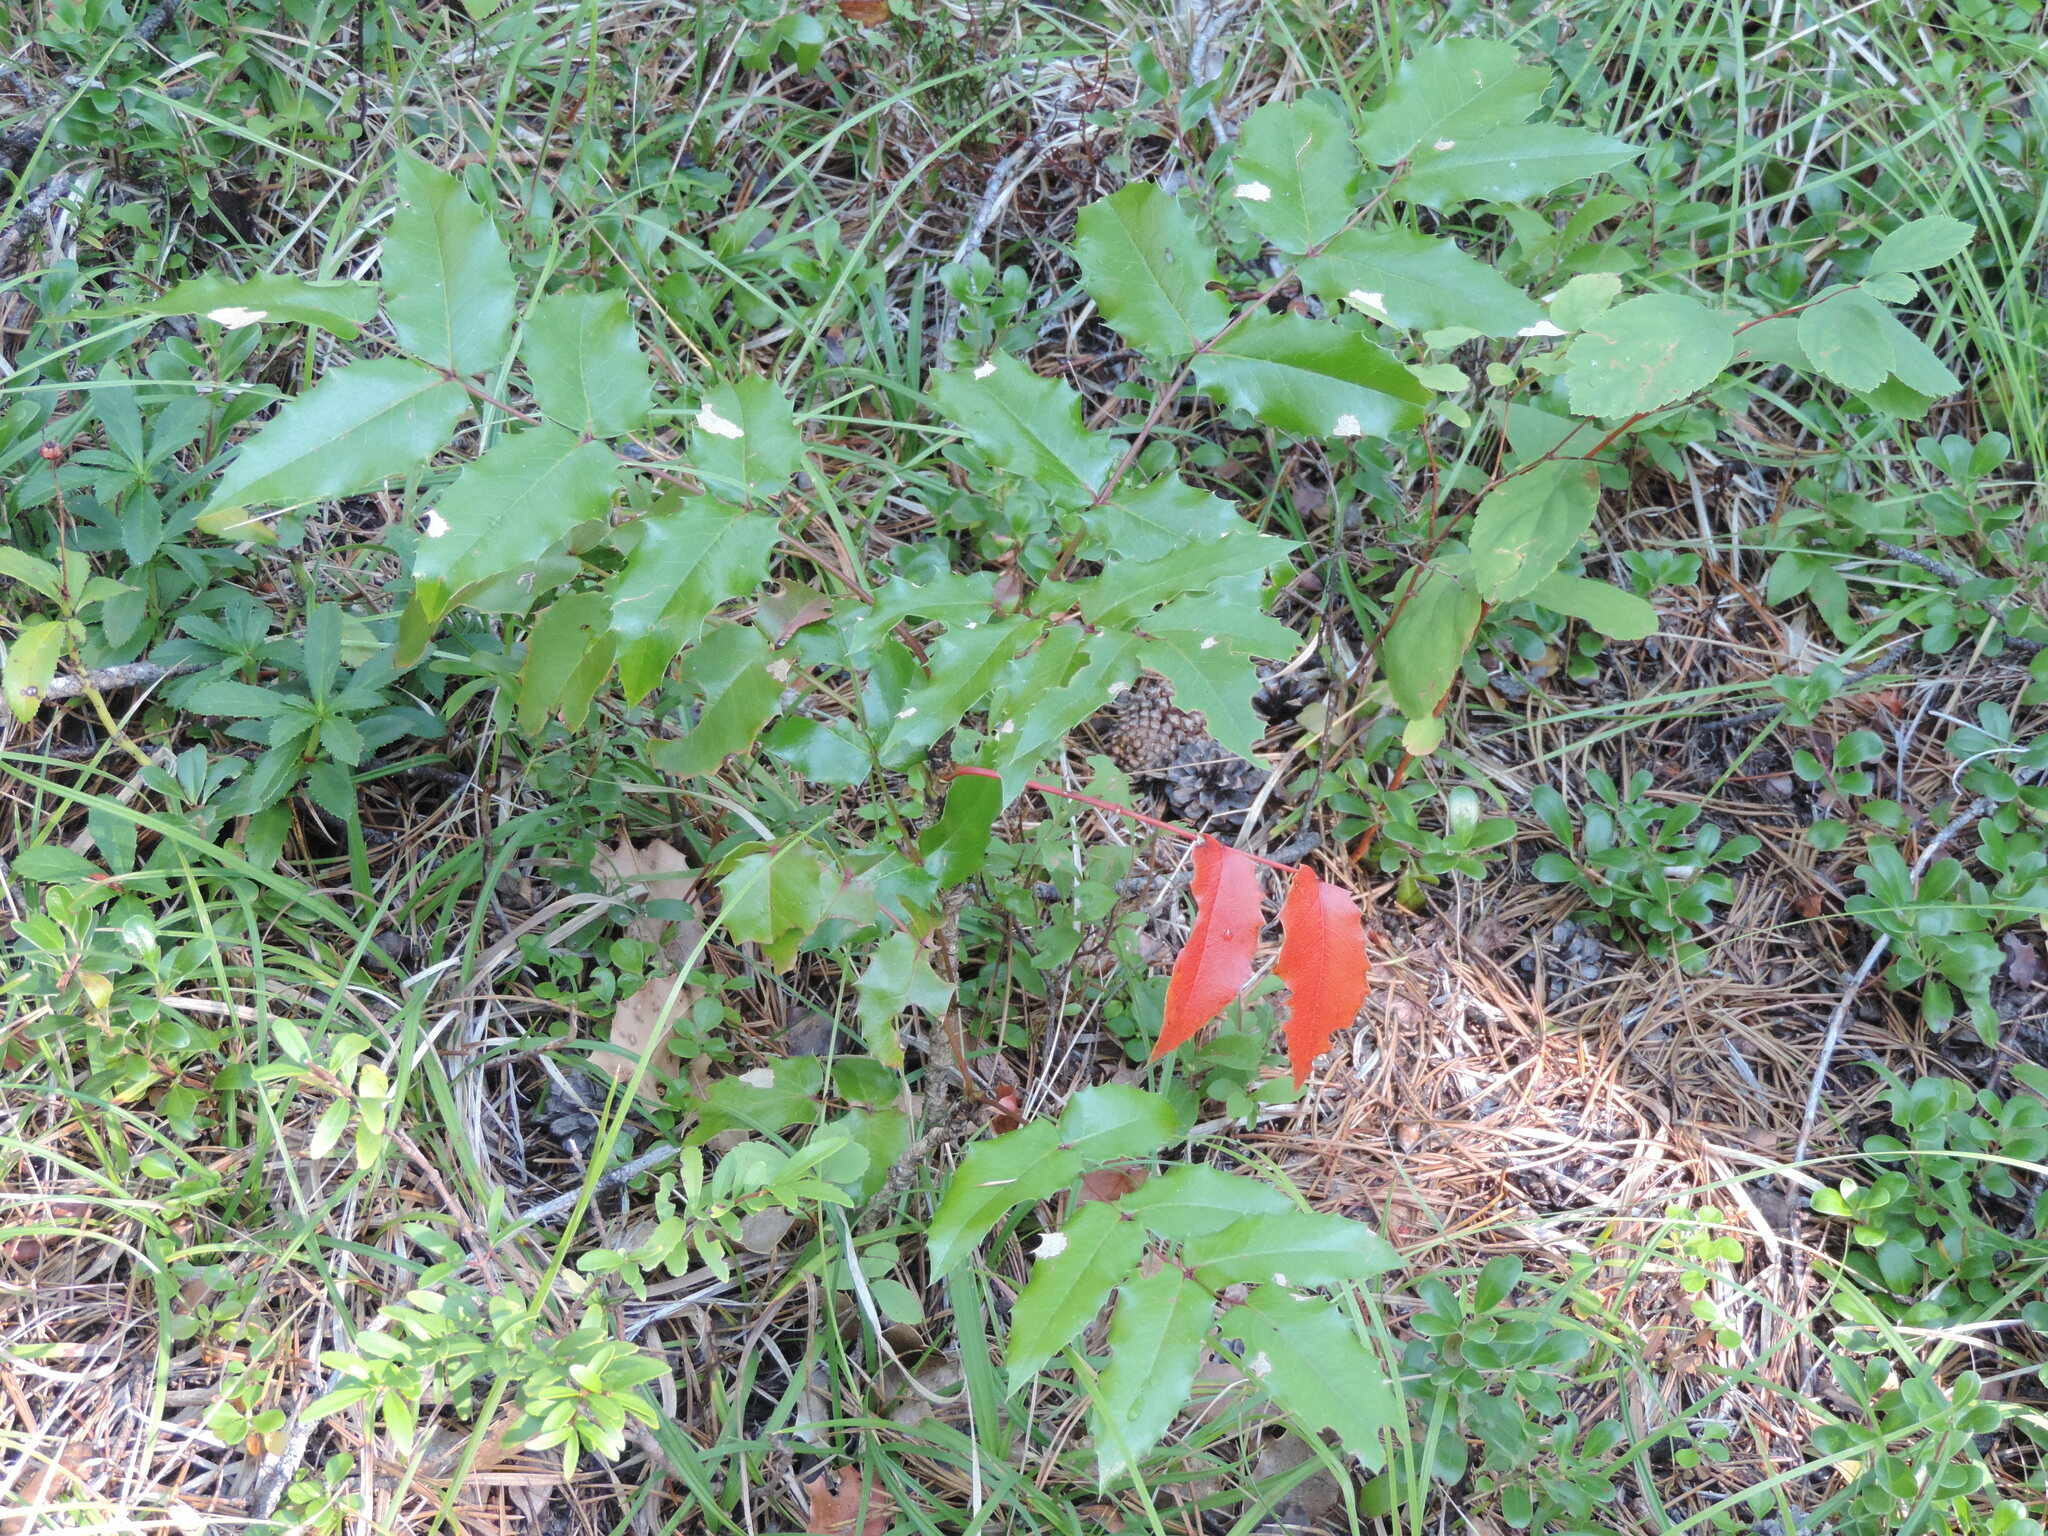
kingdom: Plantae
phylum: Tracheophyta
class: Magnoliopsida
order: Ranunculales
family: Berberidaceae
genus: Mahonia
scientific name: Mahonia aquifolium
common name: Oregon-grape
